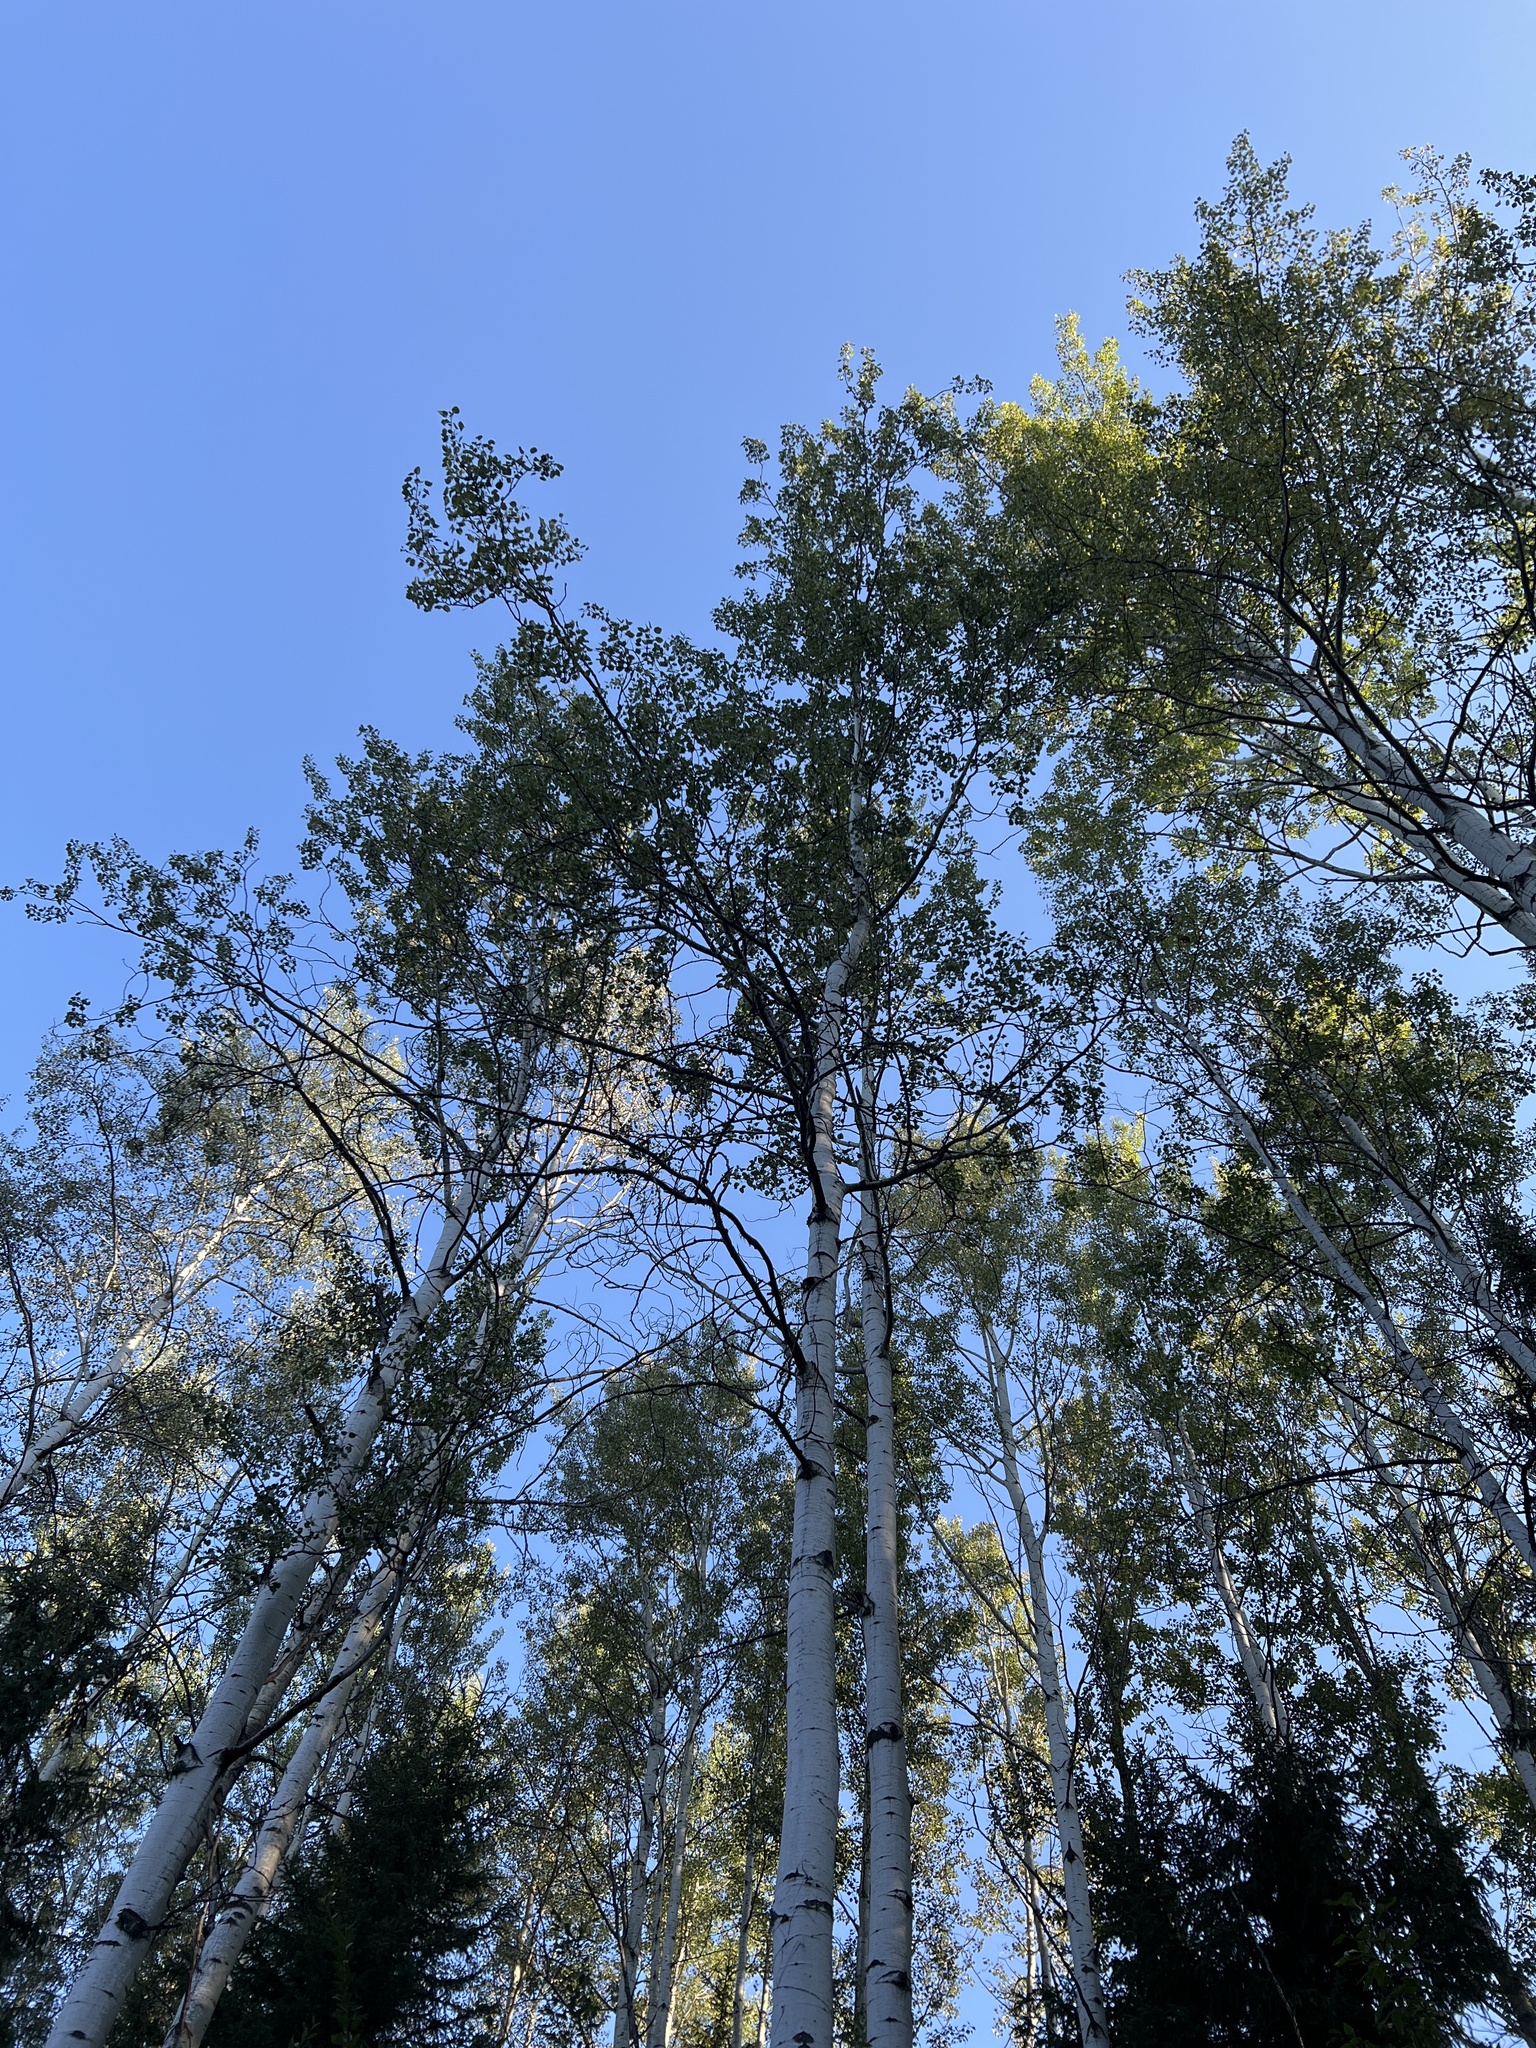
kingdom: Plantae
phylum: Tracheophyta
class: Magnoliopsida
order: Malpighiales
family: Salicaceae
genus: Populus
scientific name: Populus tremuloides
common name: Quaking aspen
